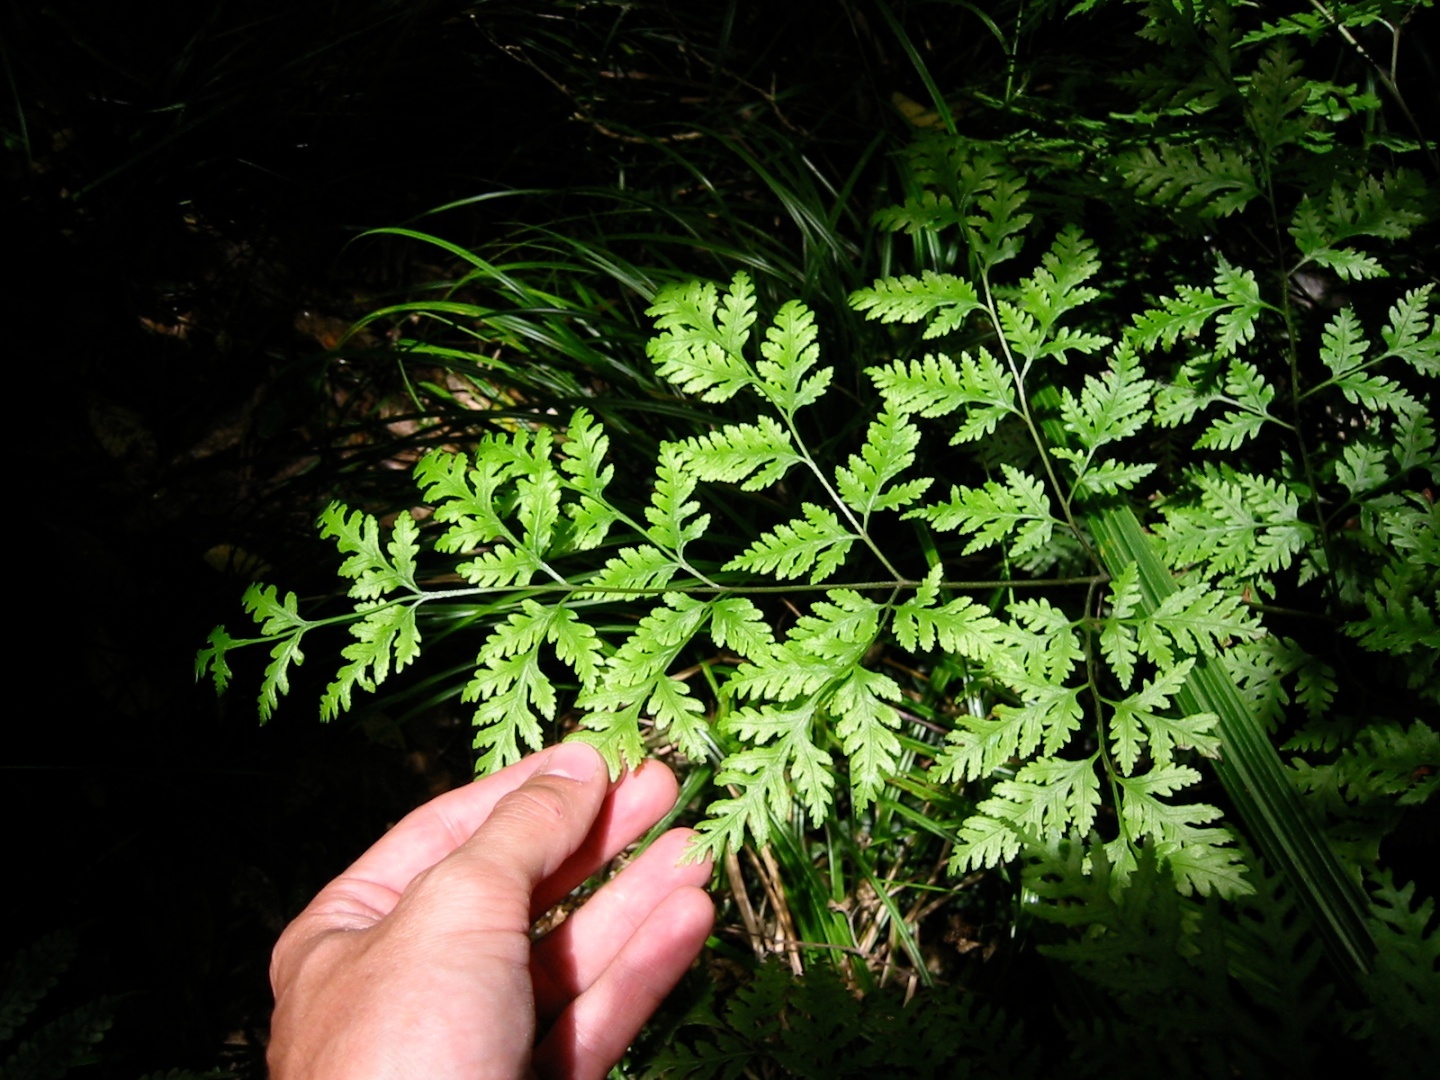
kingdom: Plantae
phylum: Tracheophyta
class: Polypodiopsida
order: Polypodiales
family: Pteridaceae
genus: Pteris
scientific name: Pteris macilenta
